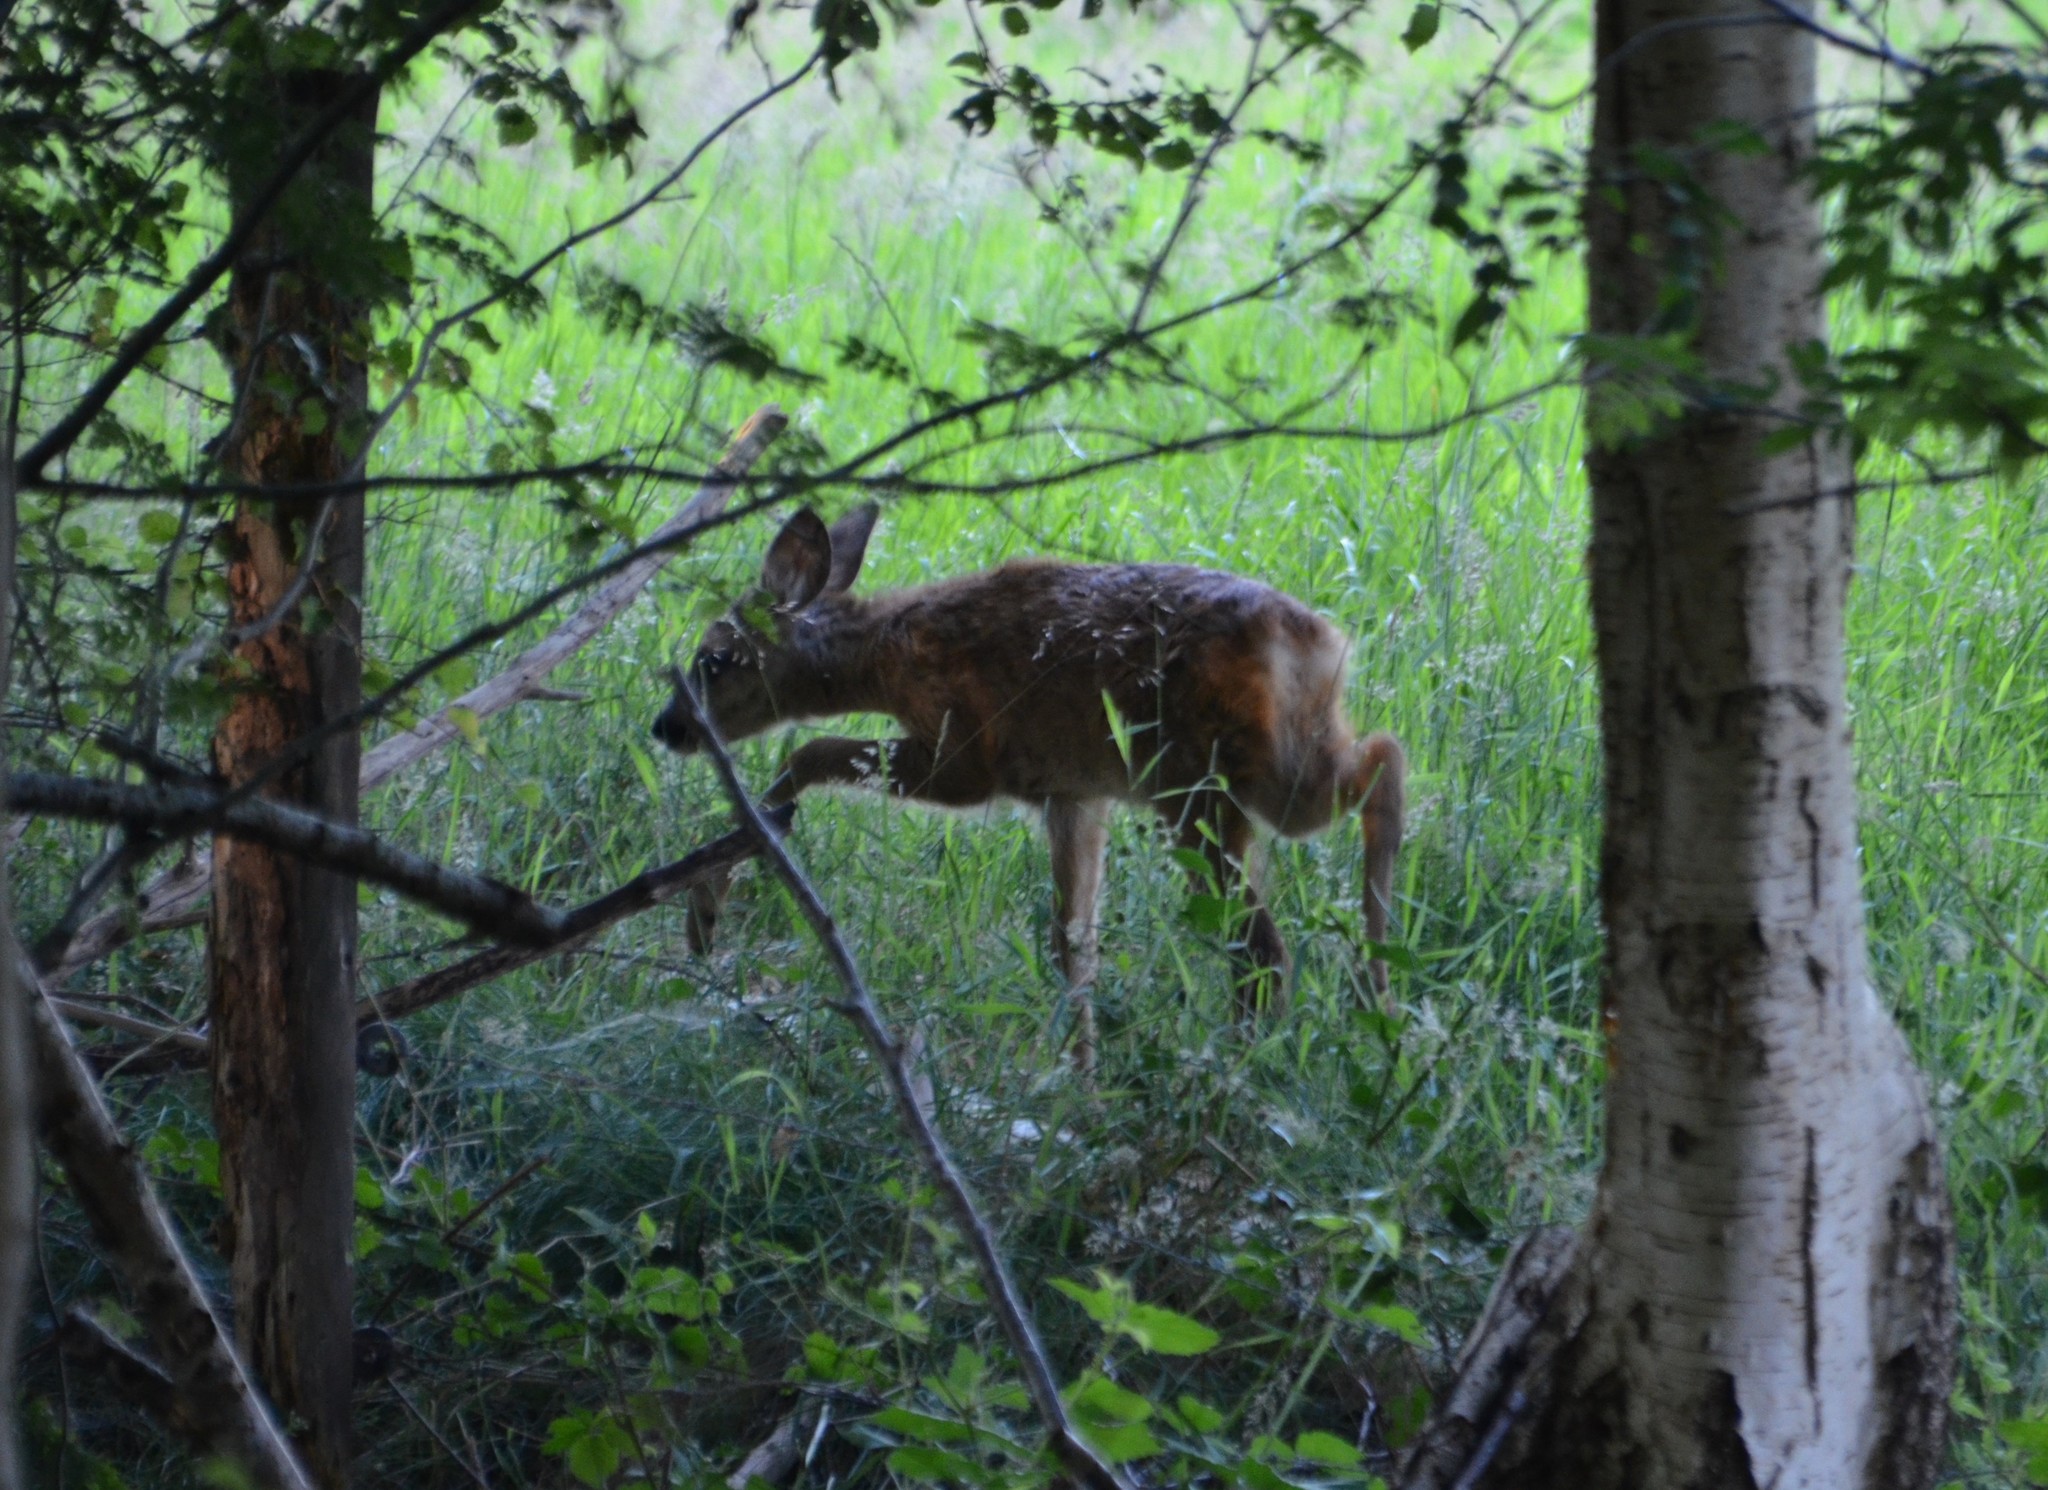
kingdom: Animalia
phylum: Chordata
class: Mammalia
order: Artiodactyla
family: Cervidae
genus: Capreolus
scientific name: Capreolus capreolus
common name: Western roe deer
